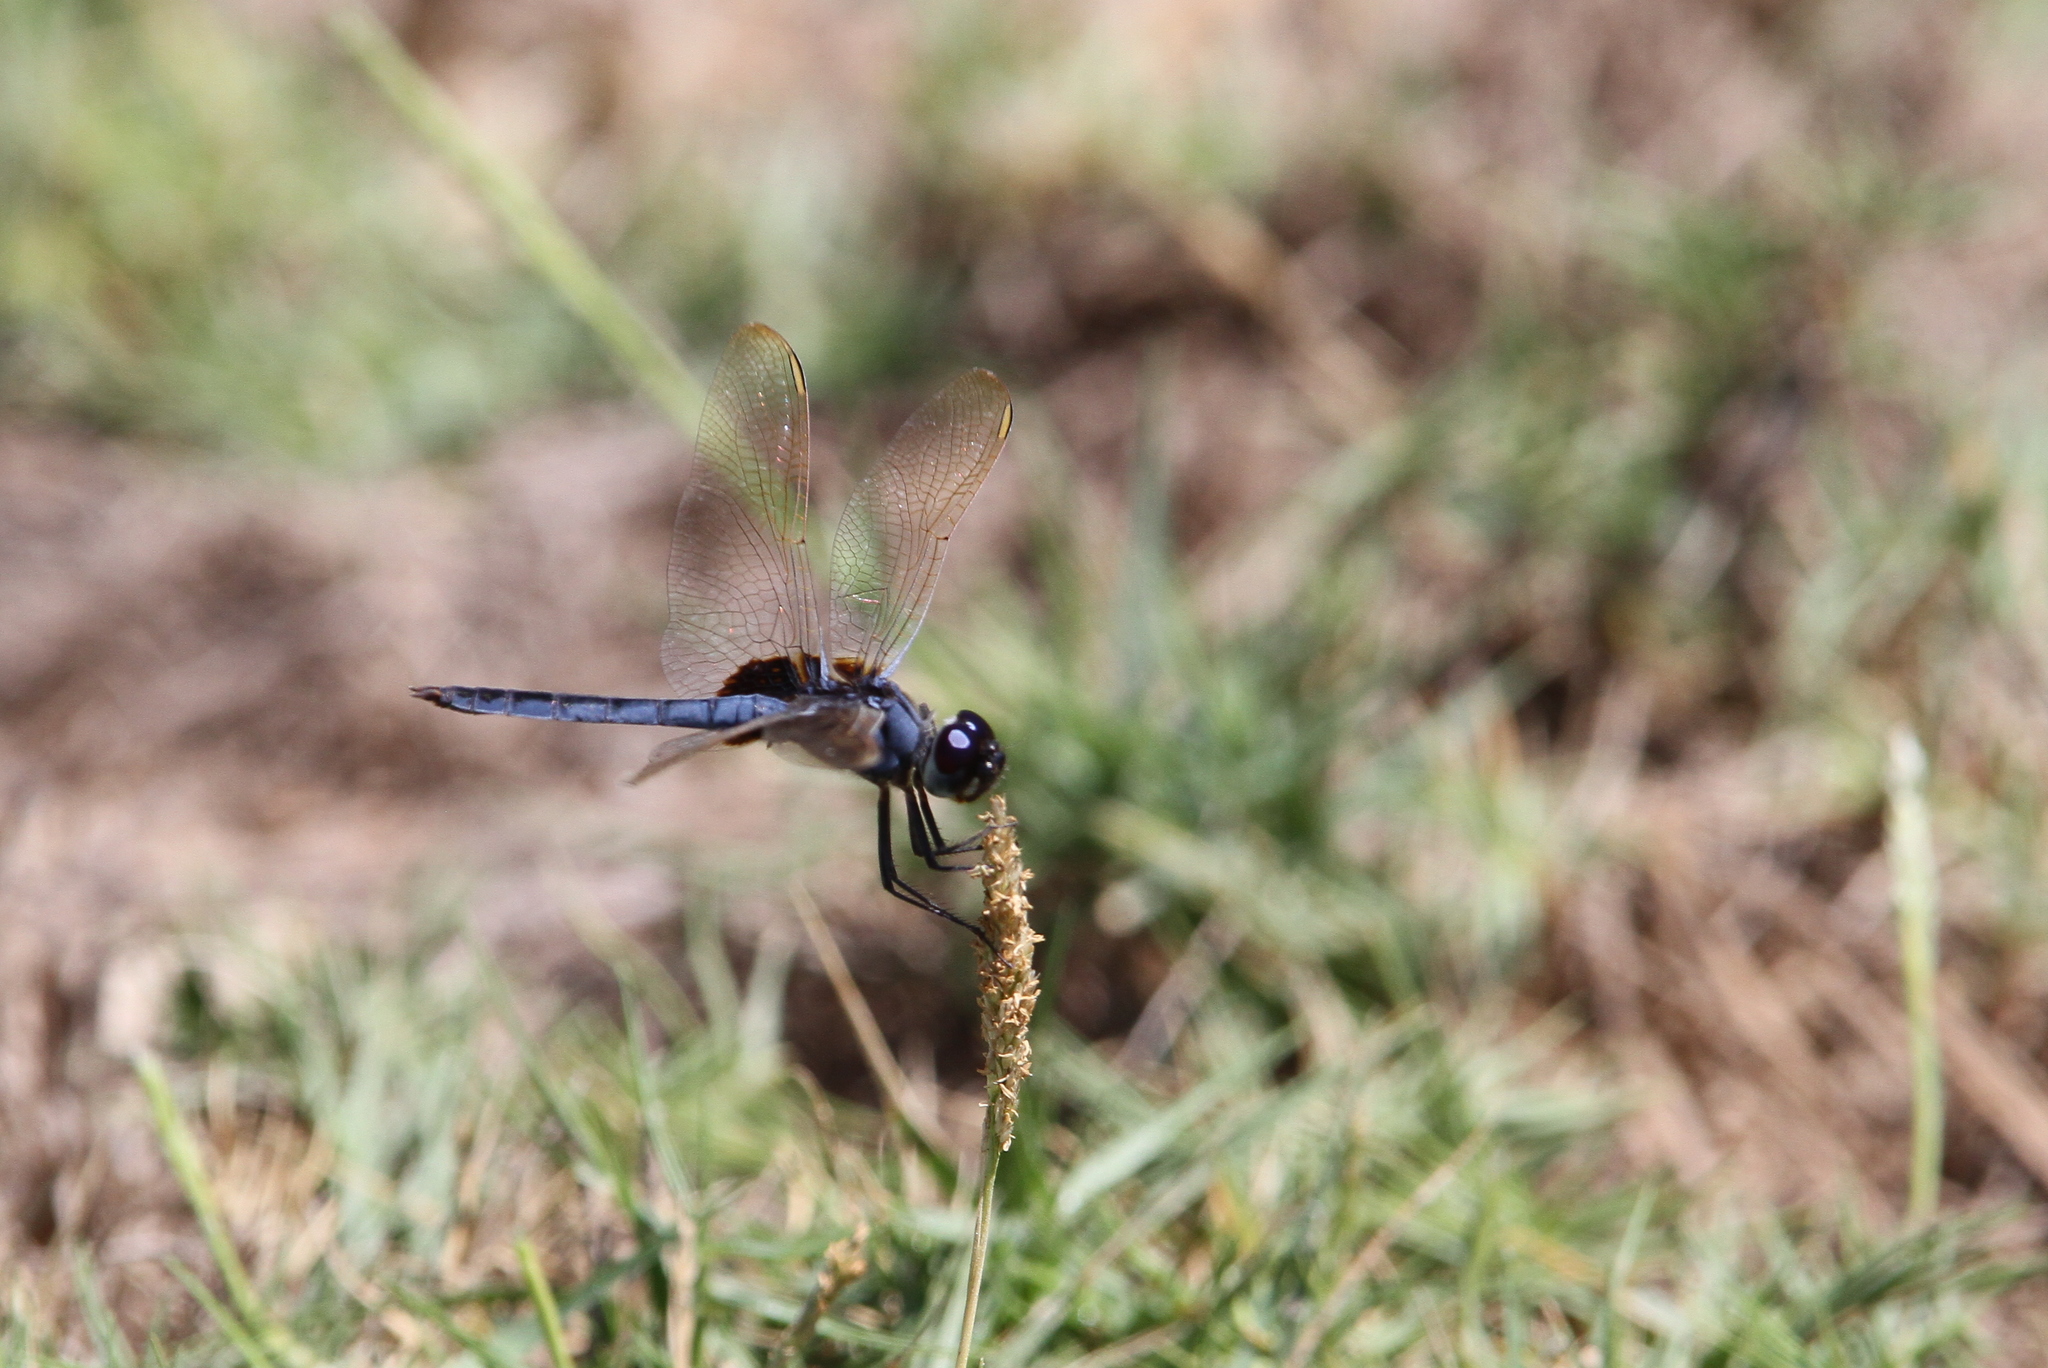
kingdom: Animalia
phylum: Arthropoda
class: Insecta
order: Odonata
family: Libellulidae
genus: Urothemis
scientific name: Urothemis edwardsii
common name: Blue basker
